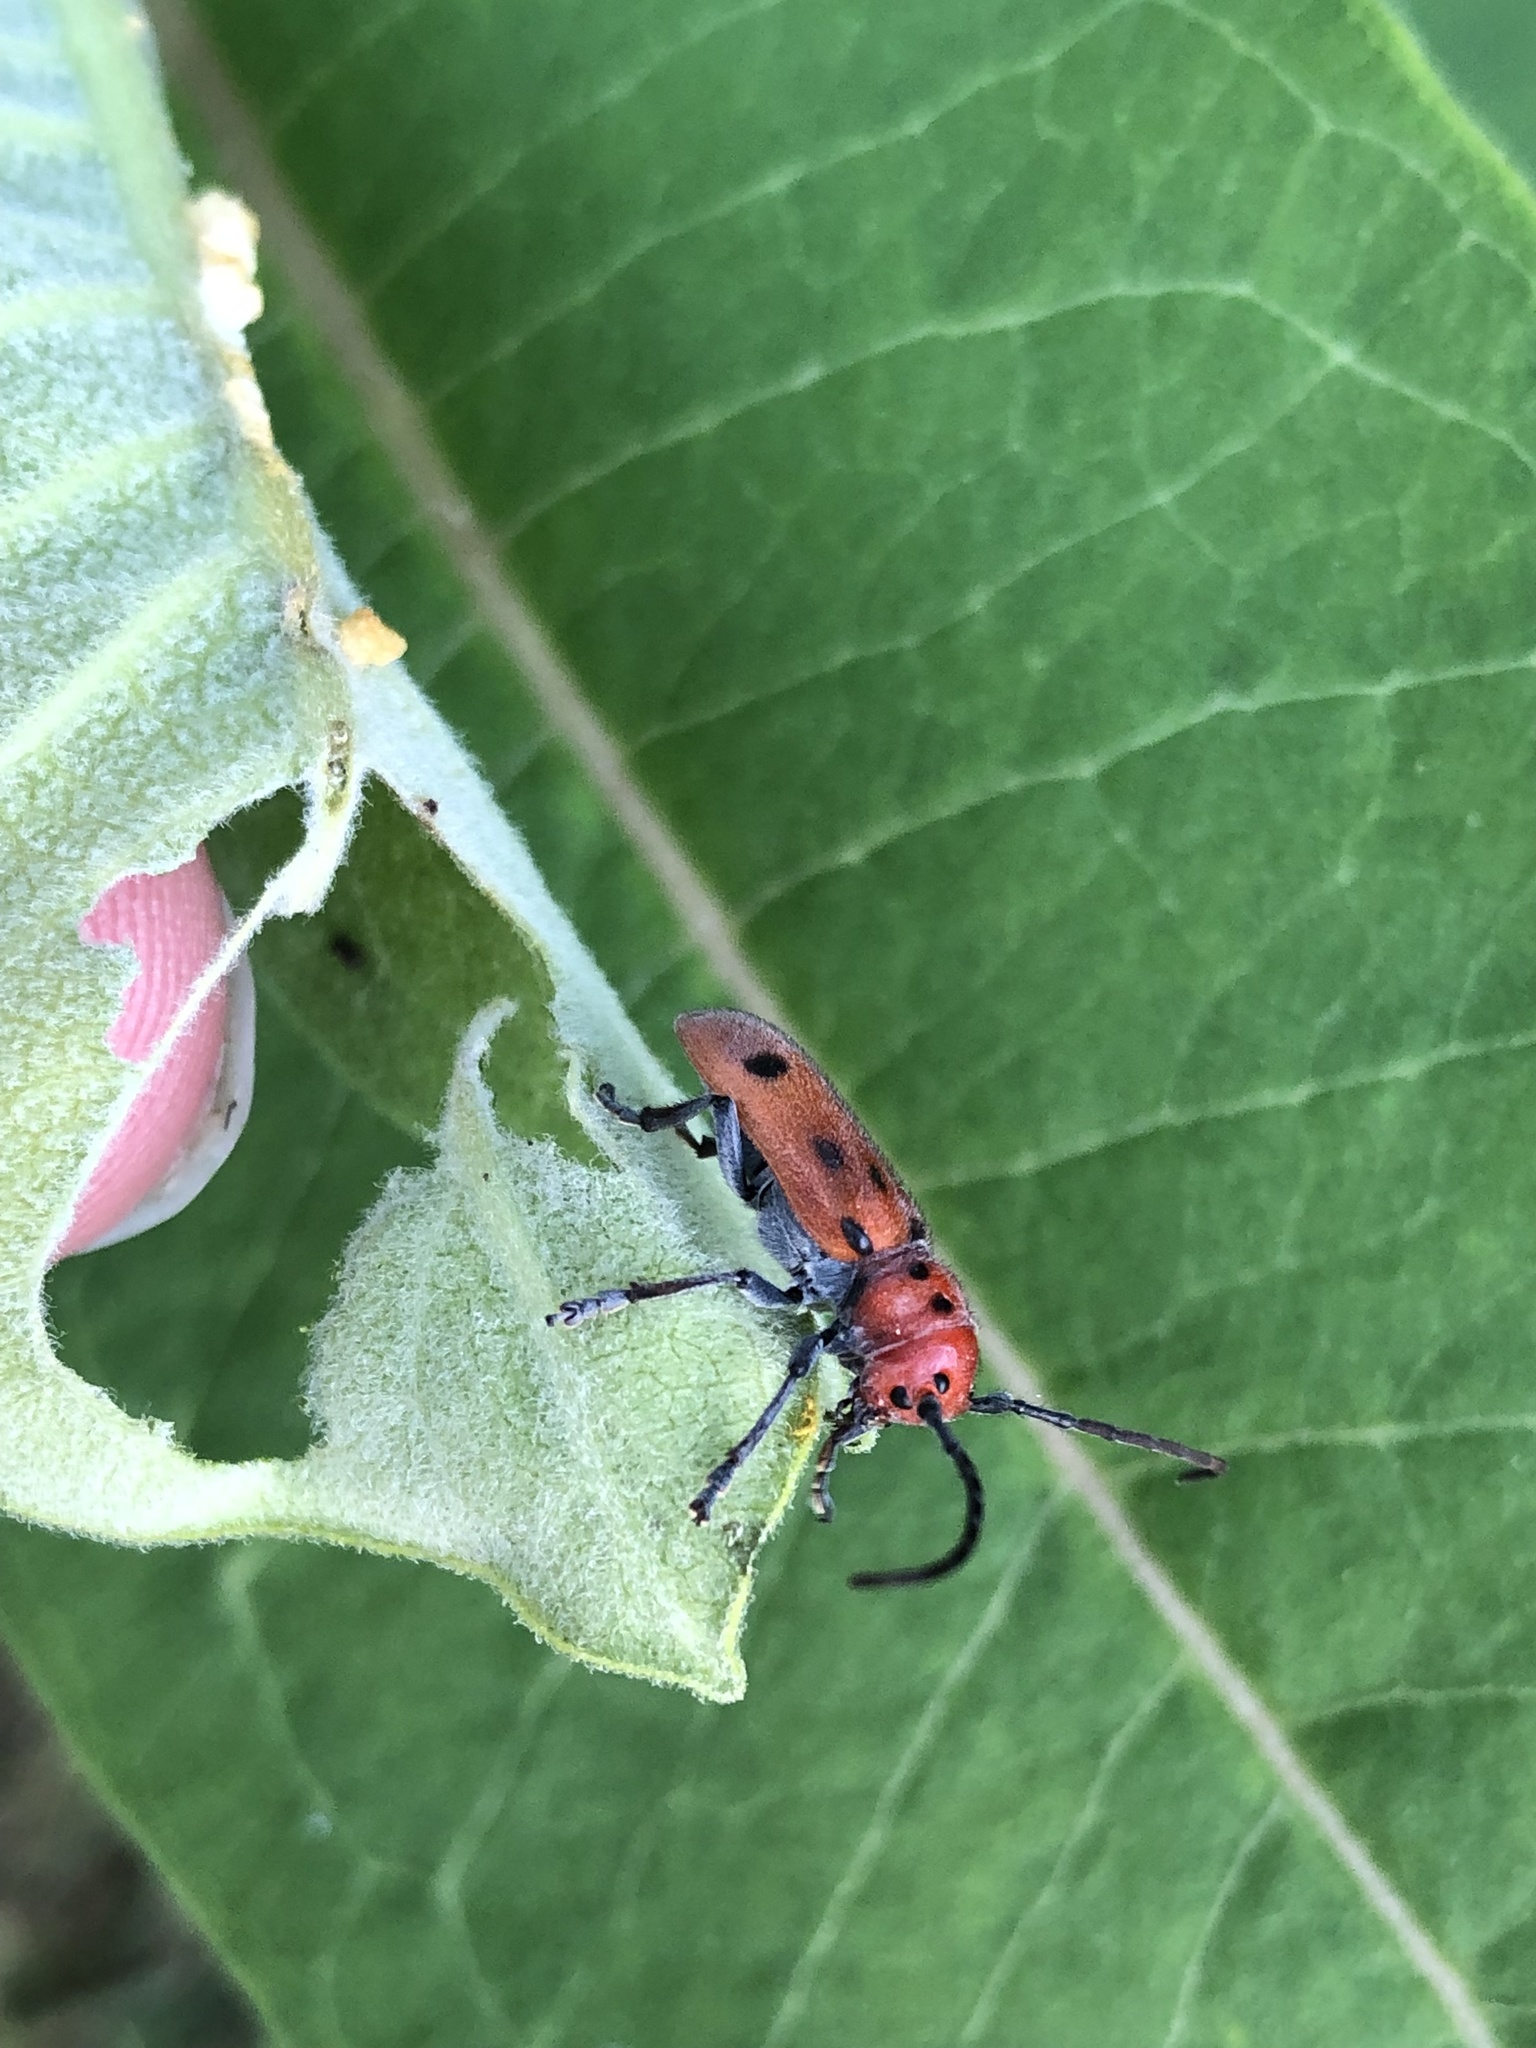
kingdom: Animalia
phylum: Arthropoda
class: Insecta
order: Coleoptera
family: Cerambycidae
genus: Tetraopes
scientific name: Tetraopes tetrophthalmus
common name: Red milkweed beetle
